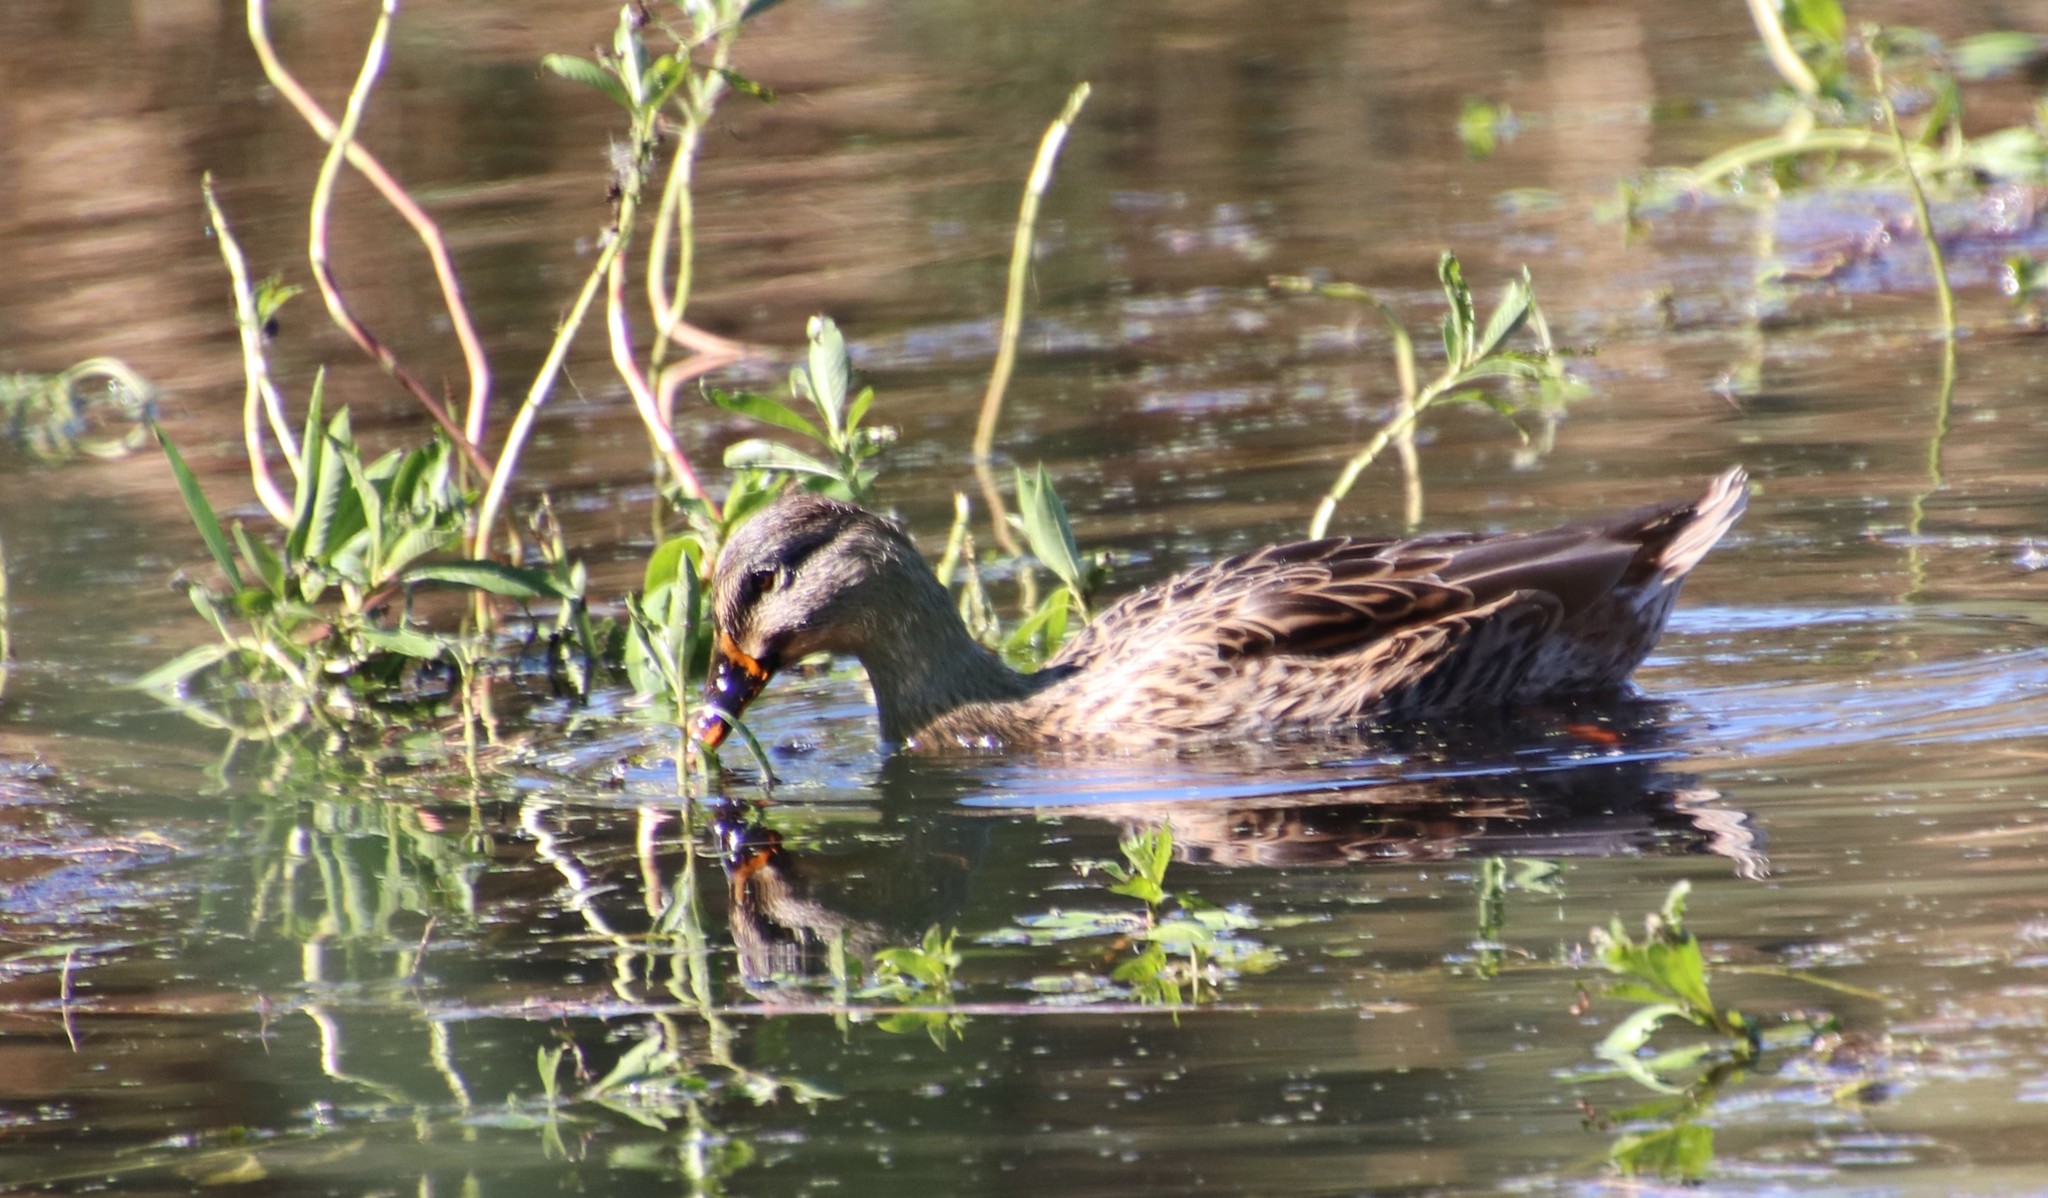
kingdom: Animalia
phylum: Chordata
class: Aves
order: Anseriformes
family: Anatidae
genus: Anas
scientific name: Anas platyrhynchos
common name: Mallard
